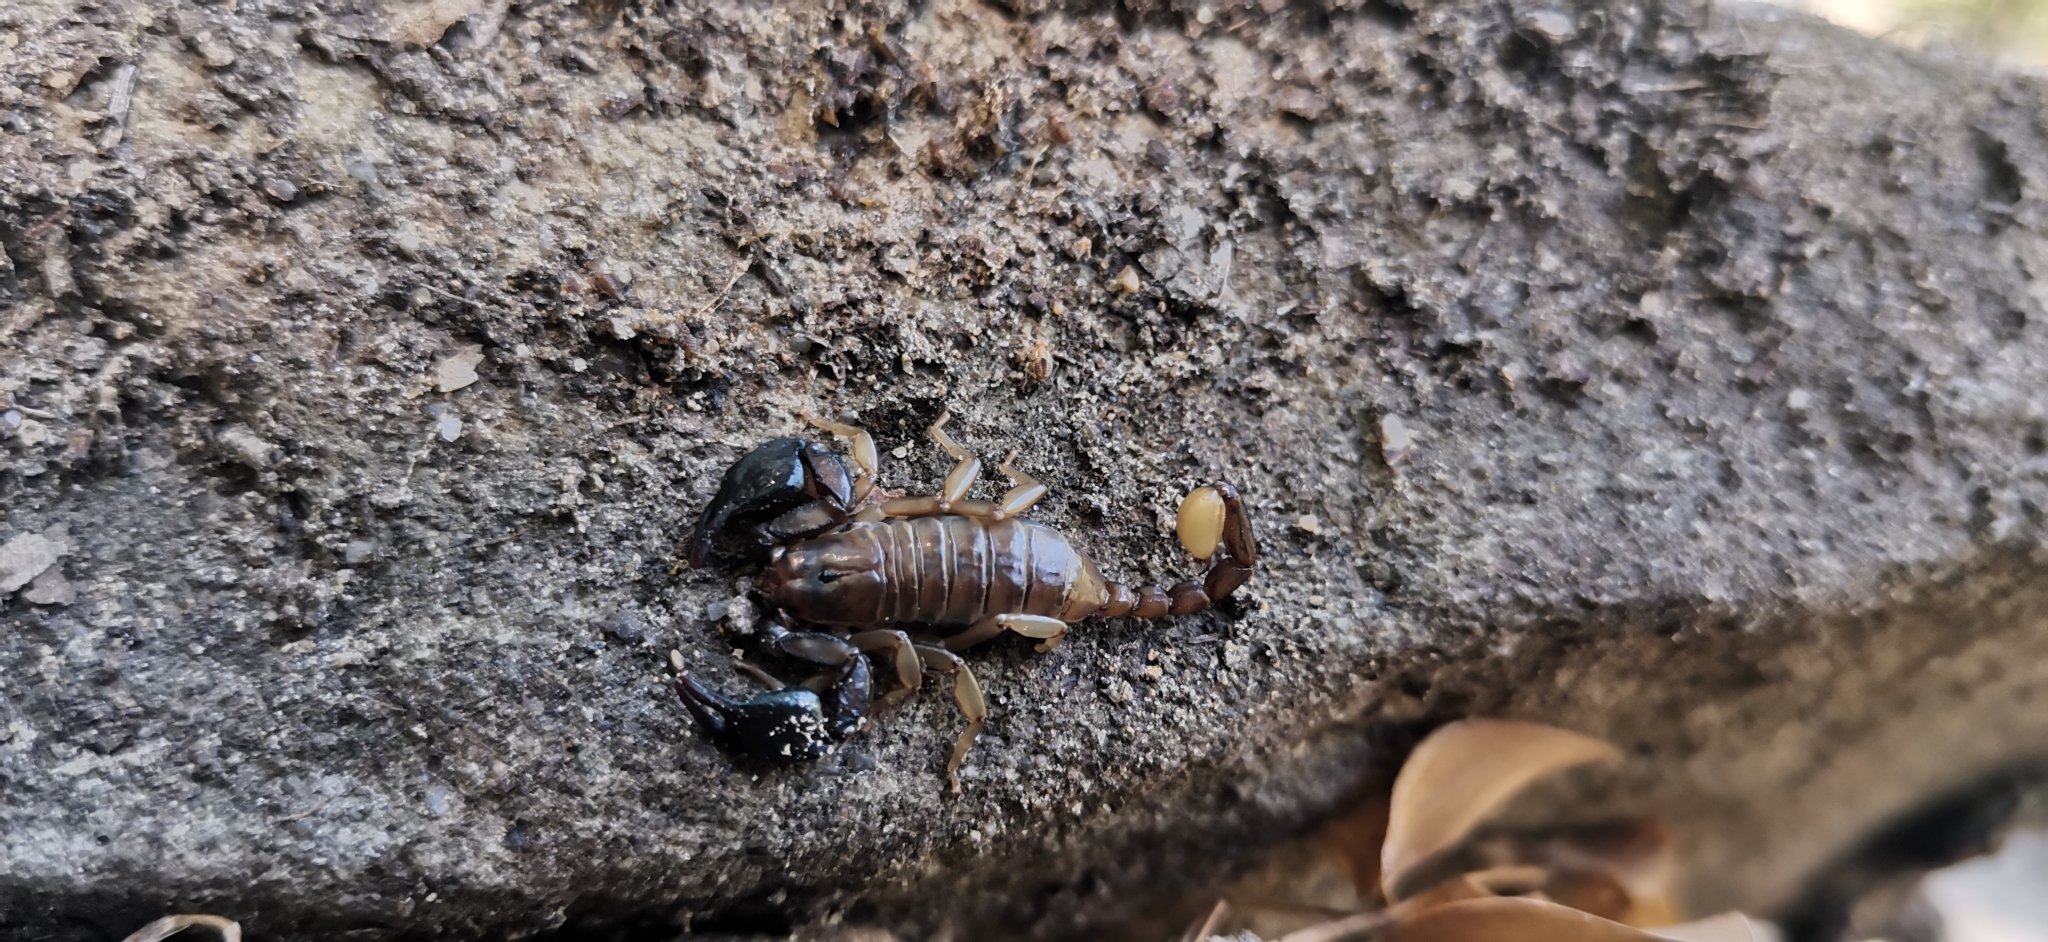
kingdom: Animalia
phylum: Arthropoda
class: Arachnida
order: Scorpiones
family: Euscorpiidae
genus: Euscorpius
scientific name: Euscorpius garganicus
